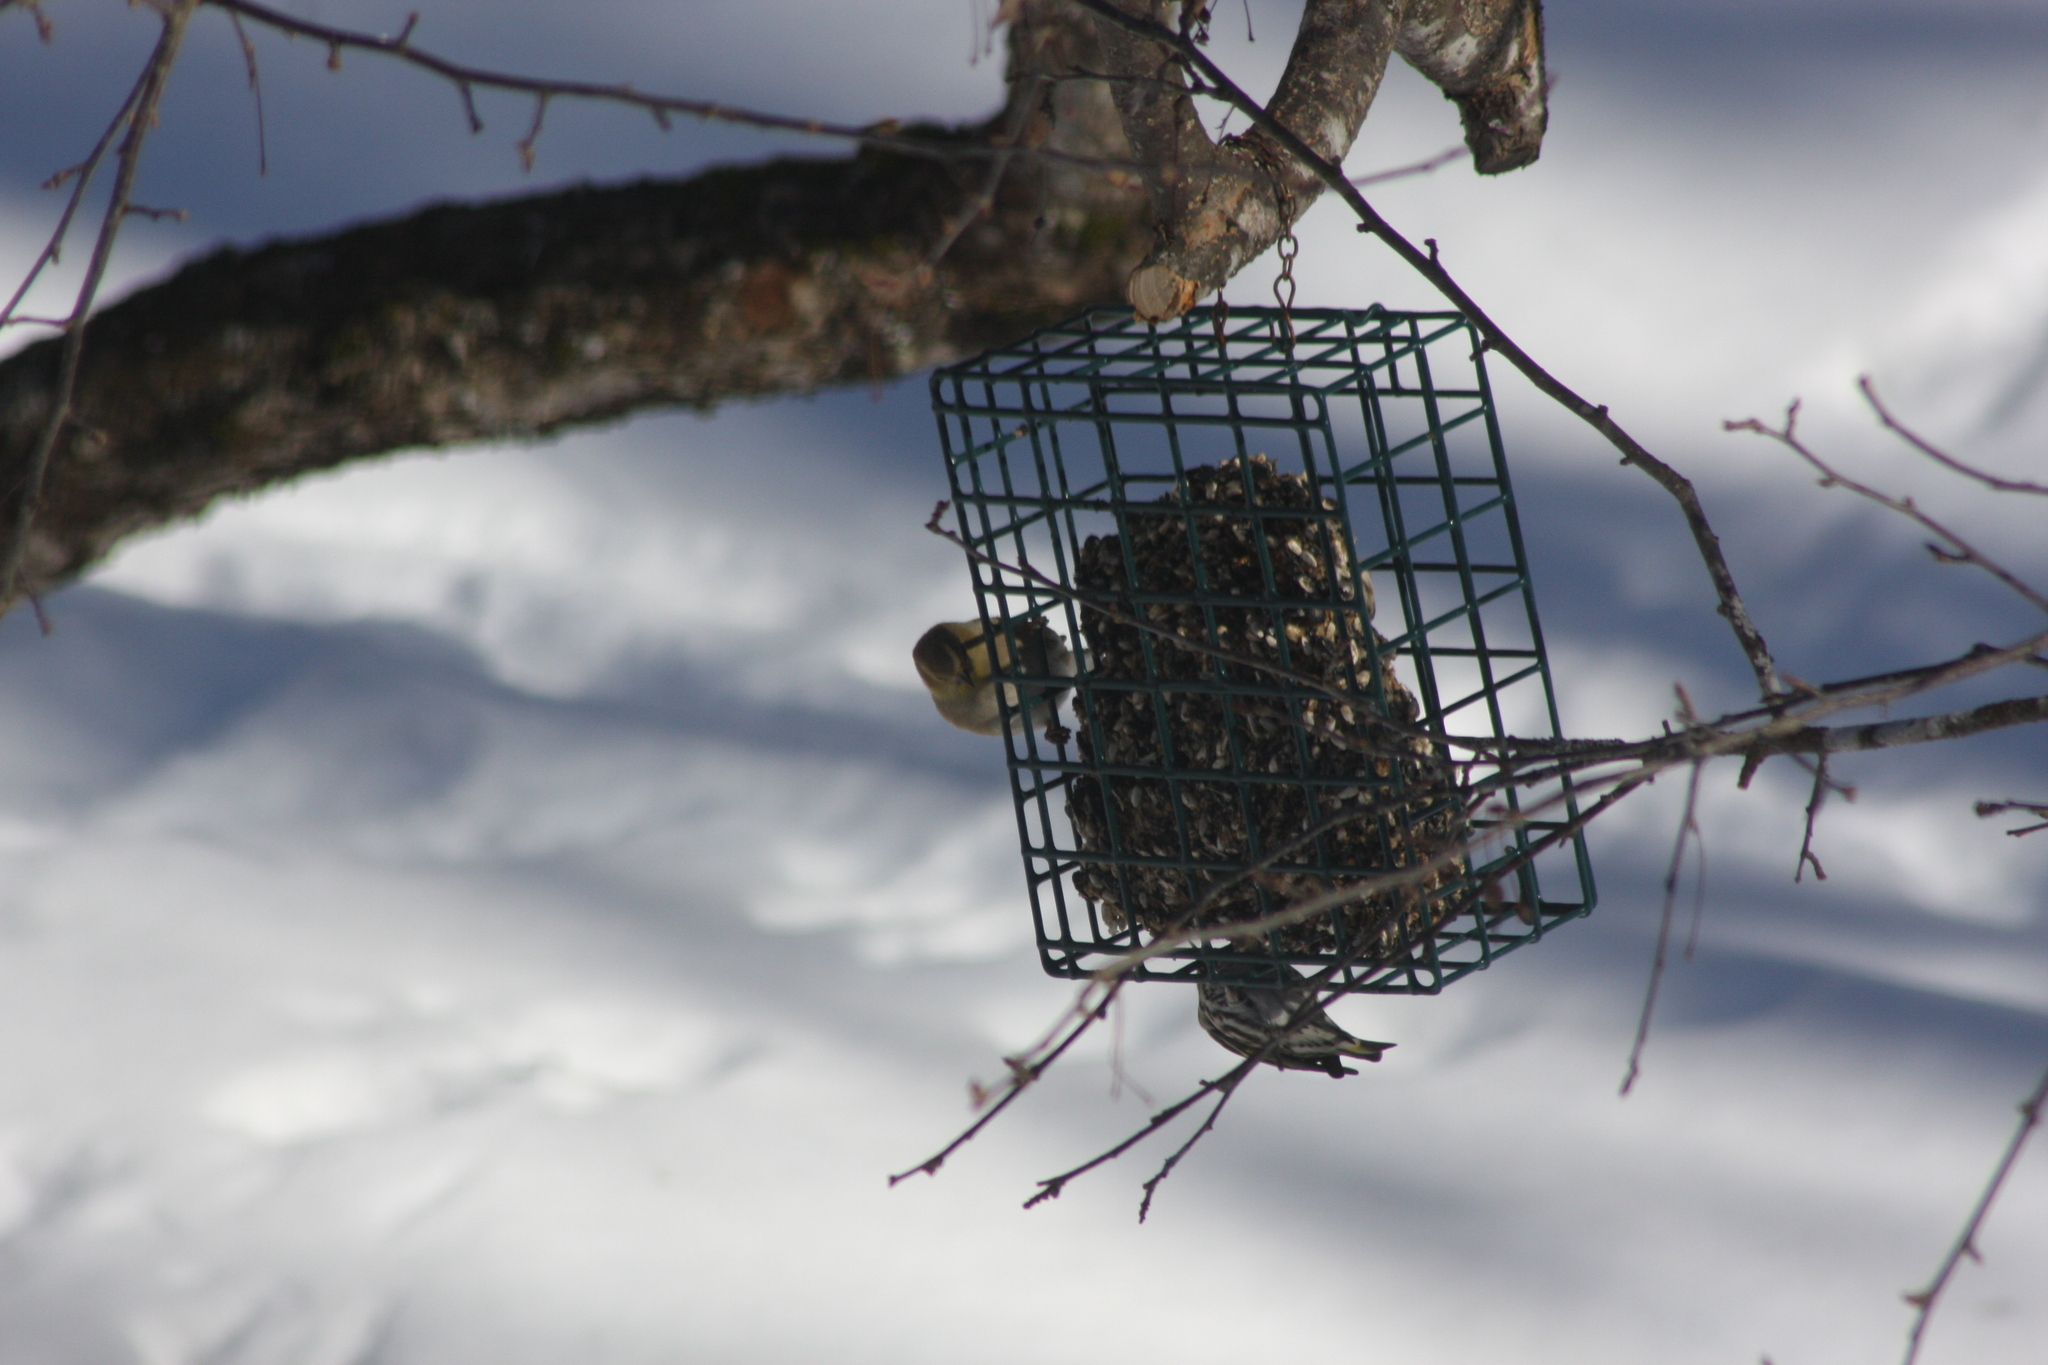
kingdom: Animalia
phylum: Chordata
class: Aves
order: Passeriformes
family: Fringillidae
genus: Spinus
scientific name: Spinus tristis
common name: American goldfinch
